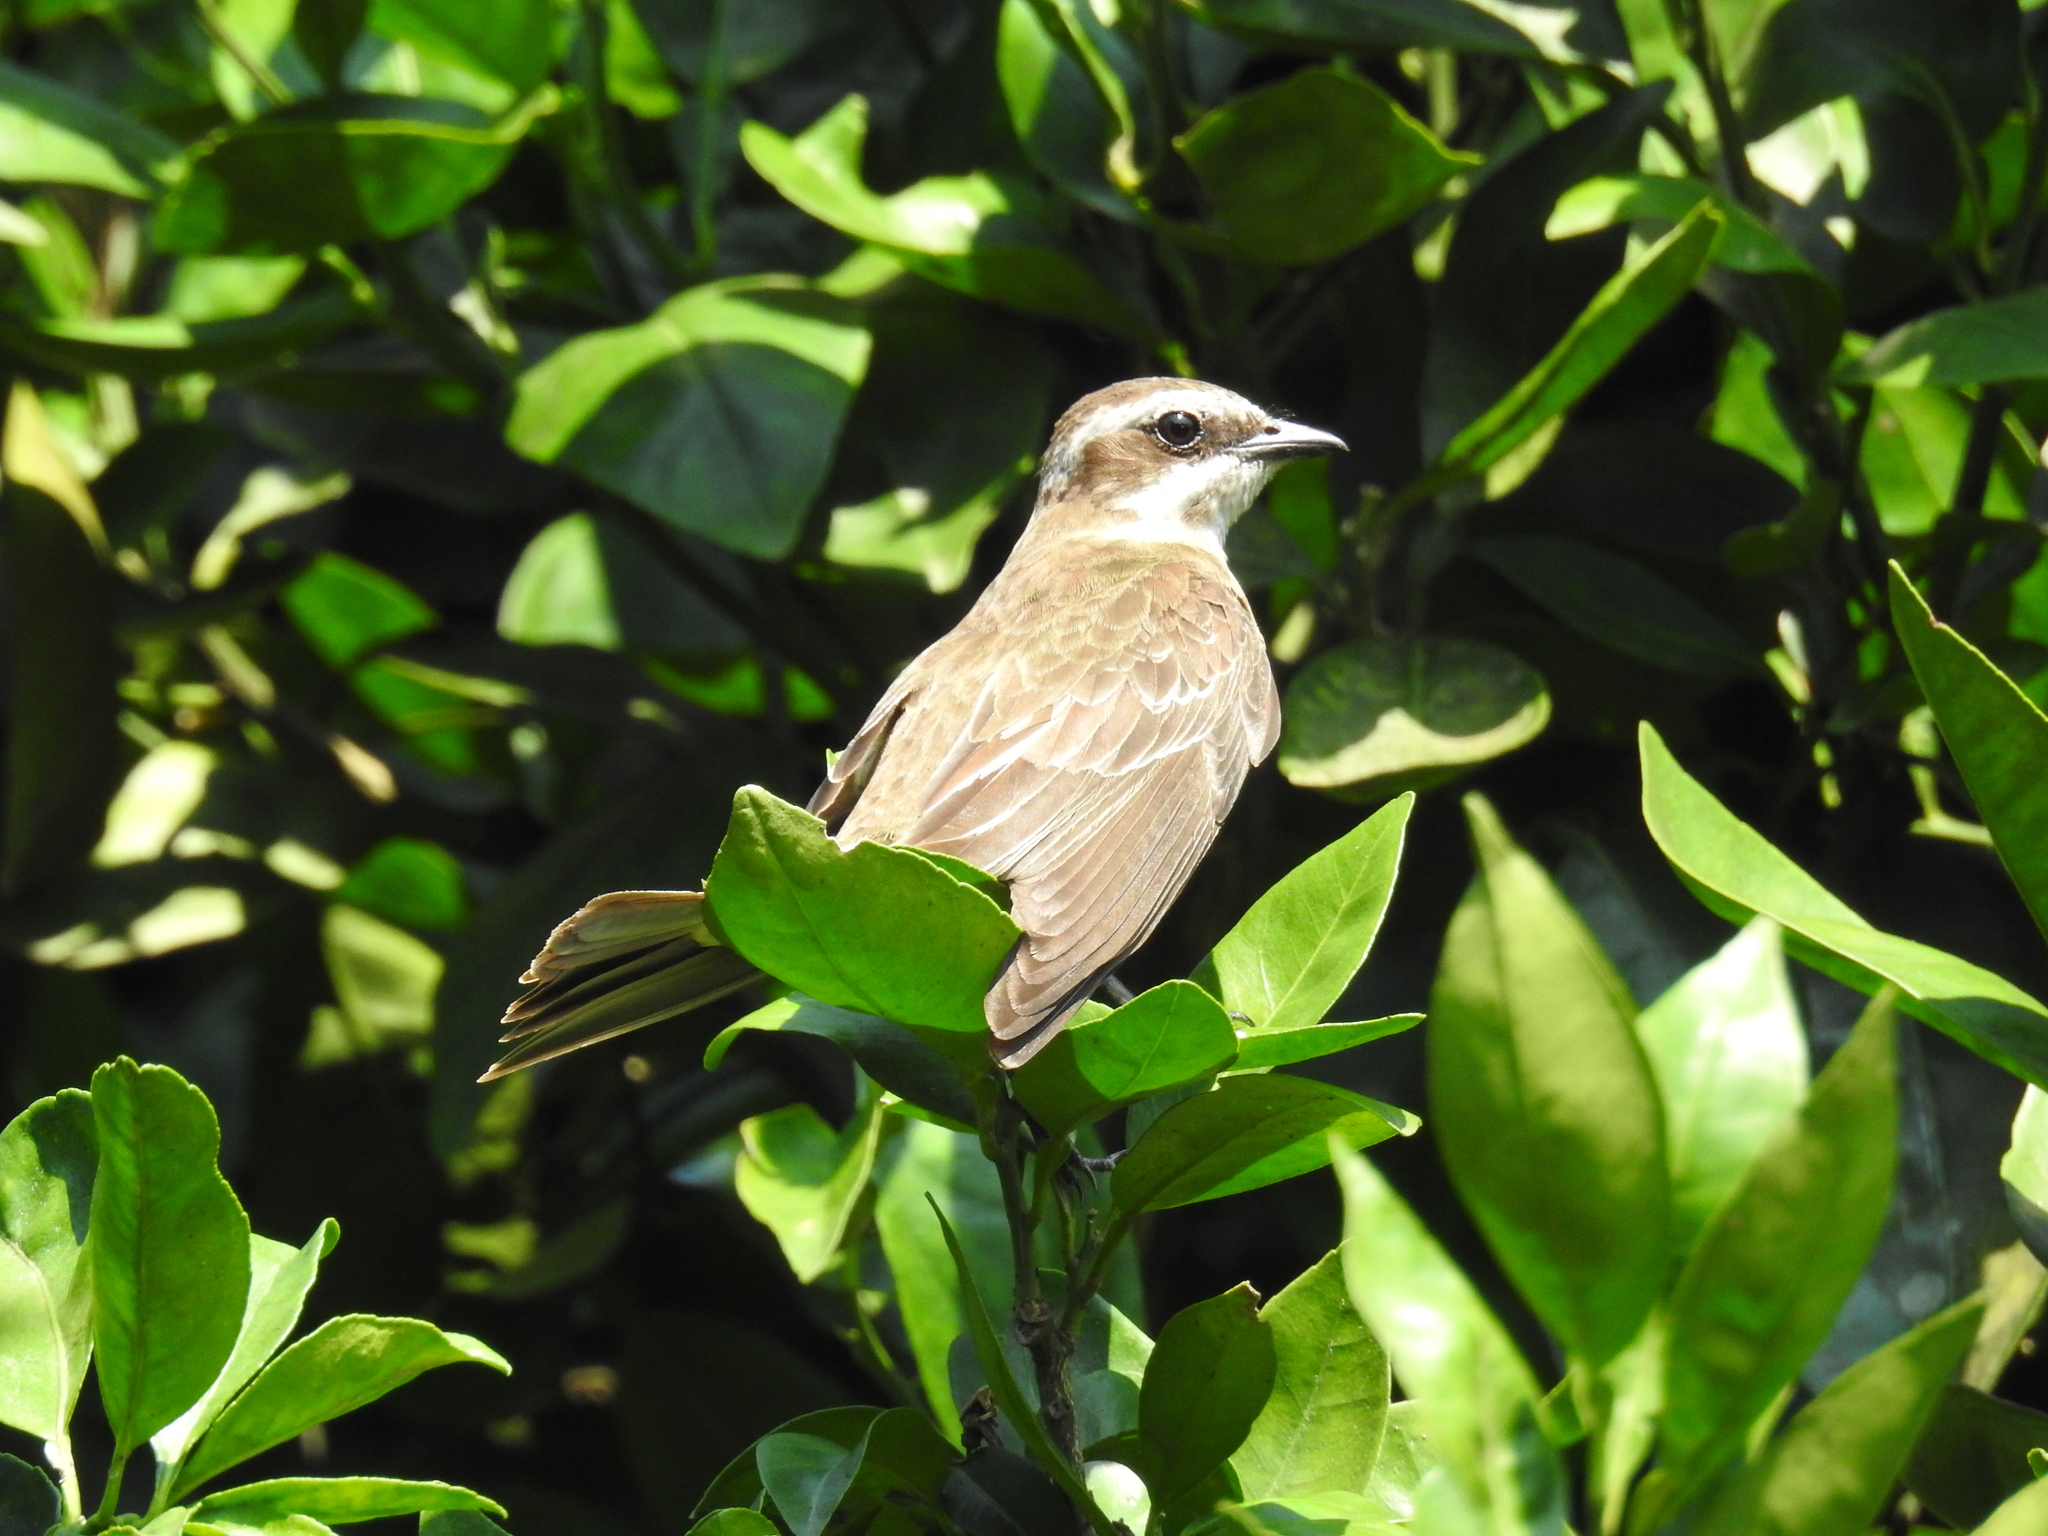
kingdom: Animalia
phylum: Chordata
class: Aves
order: Passeriformes
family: Tyrannidae
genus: Legatus
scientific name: Legatus leucophaius
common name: Piratic flycatcher
